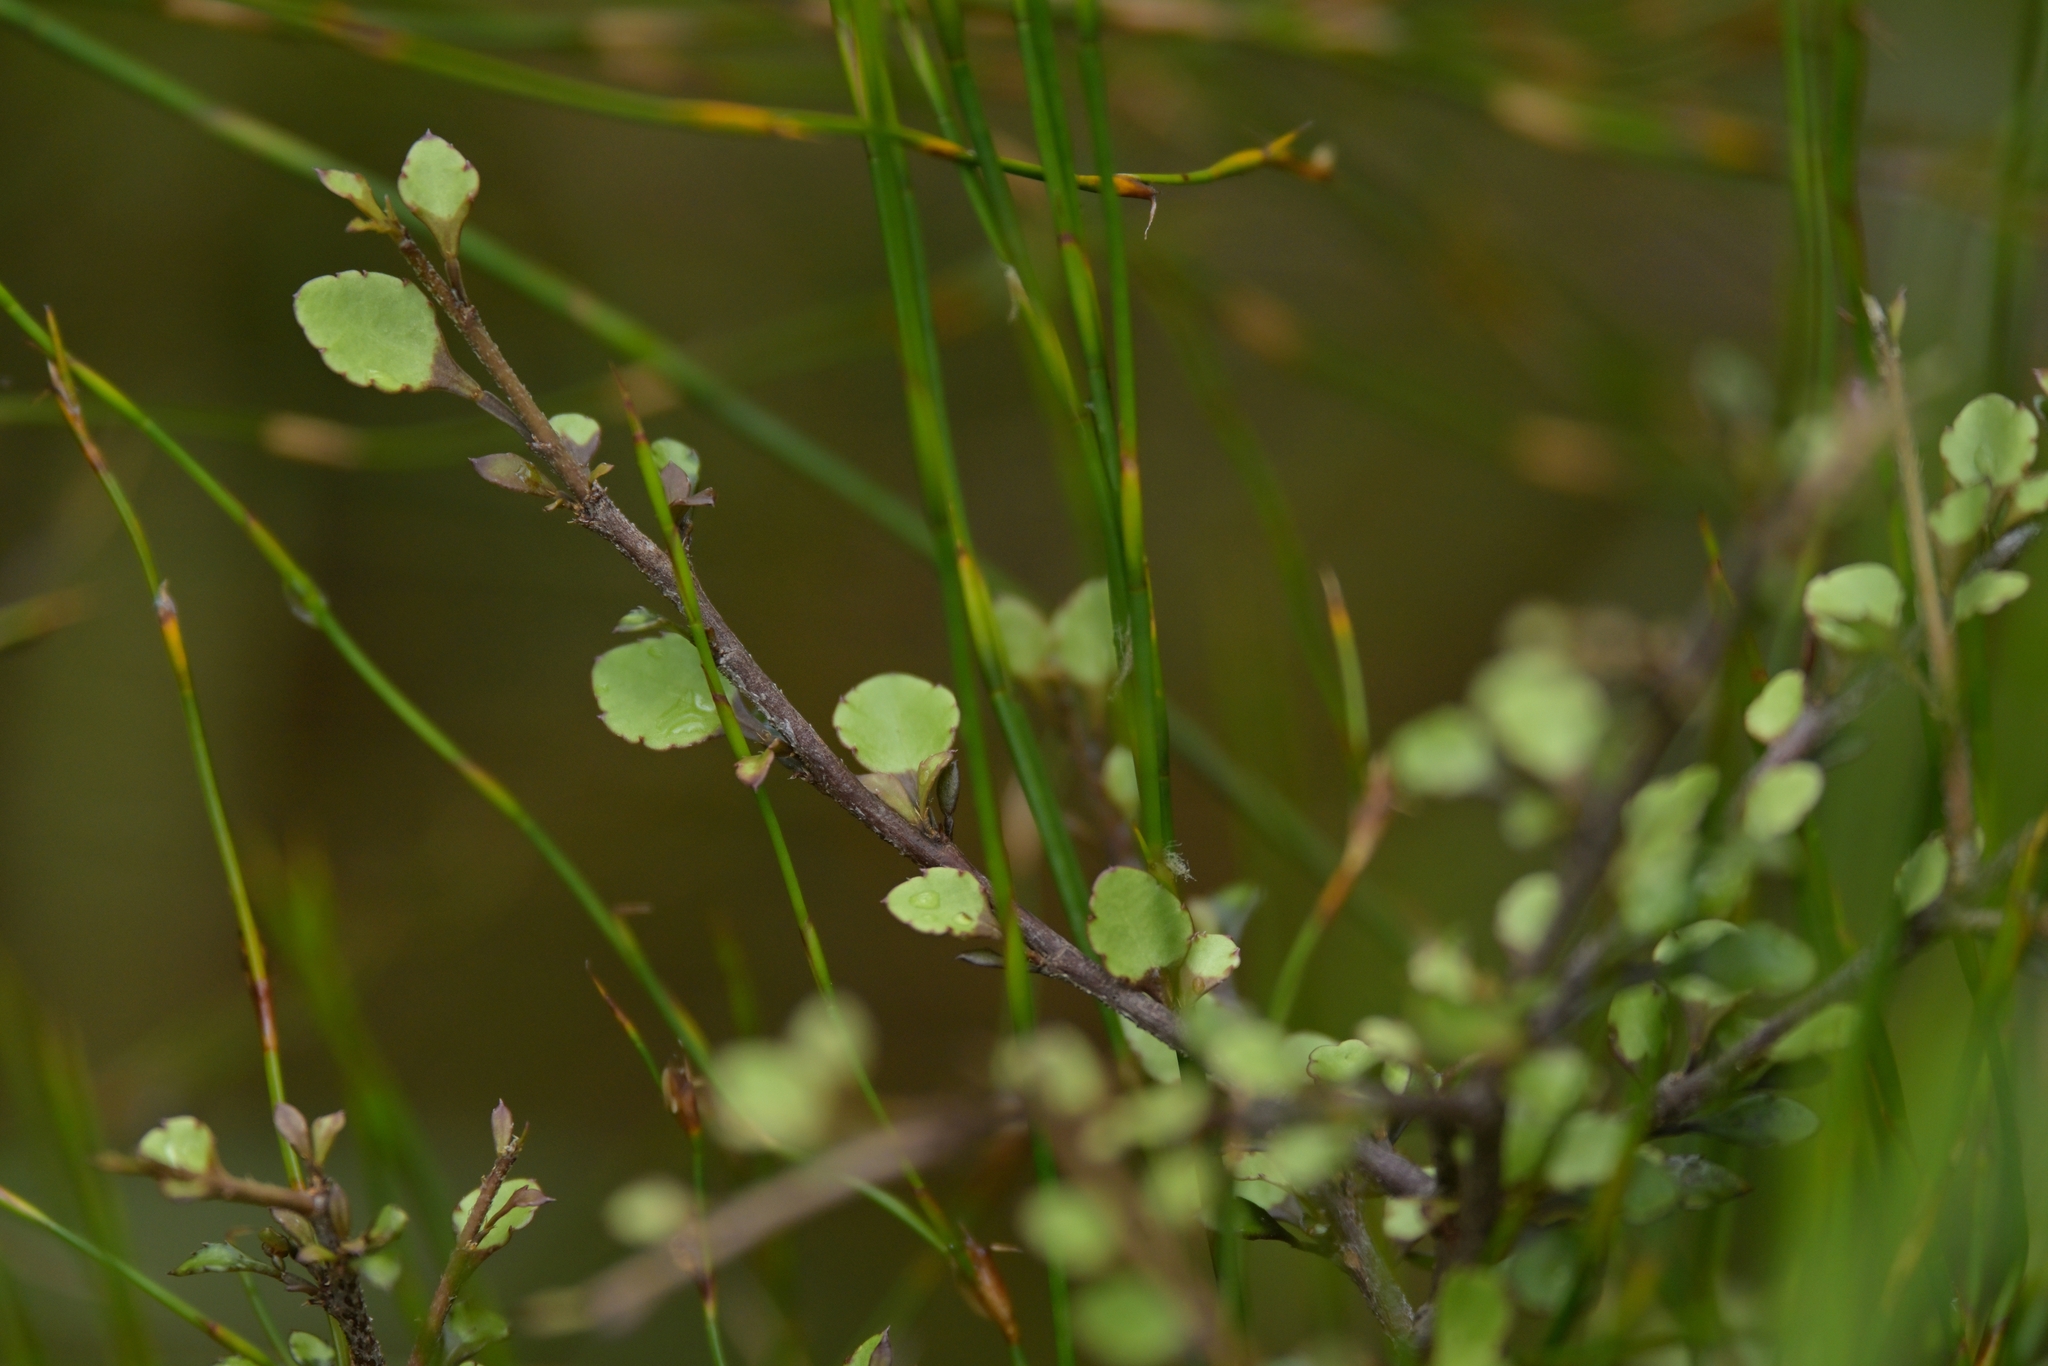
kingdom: Plantae
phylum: Tracheophyta
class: Magnoliopsida
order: Sapindales
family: Rutaceae
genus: Melicope
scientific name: Melicope simplex
